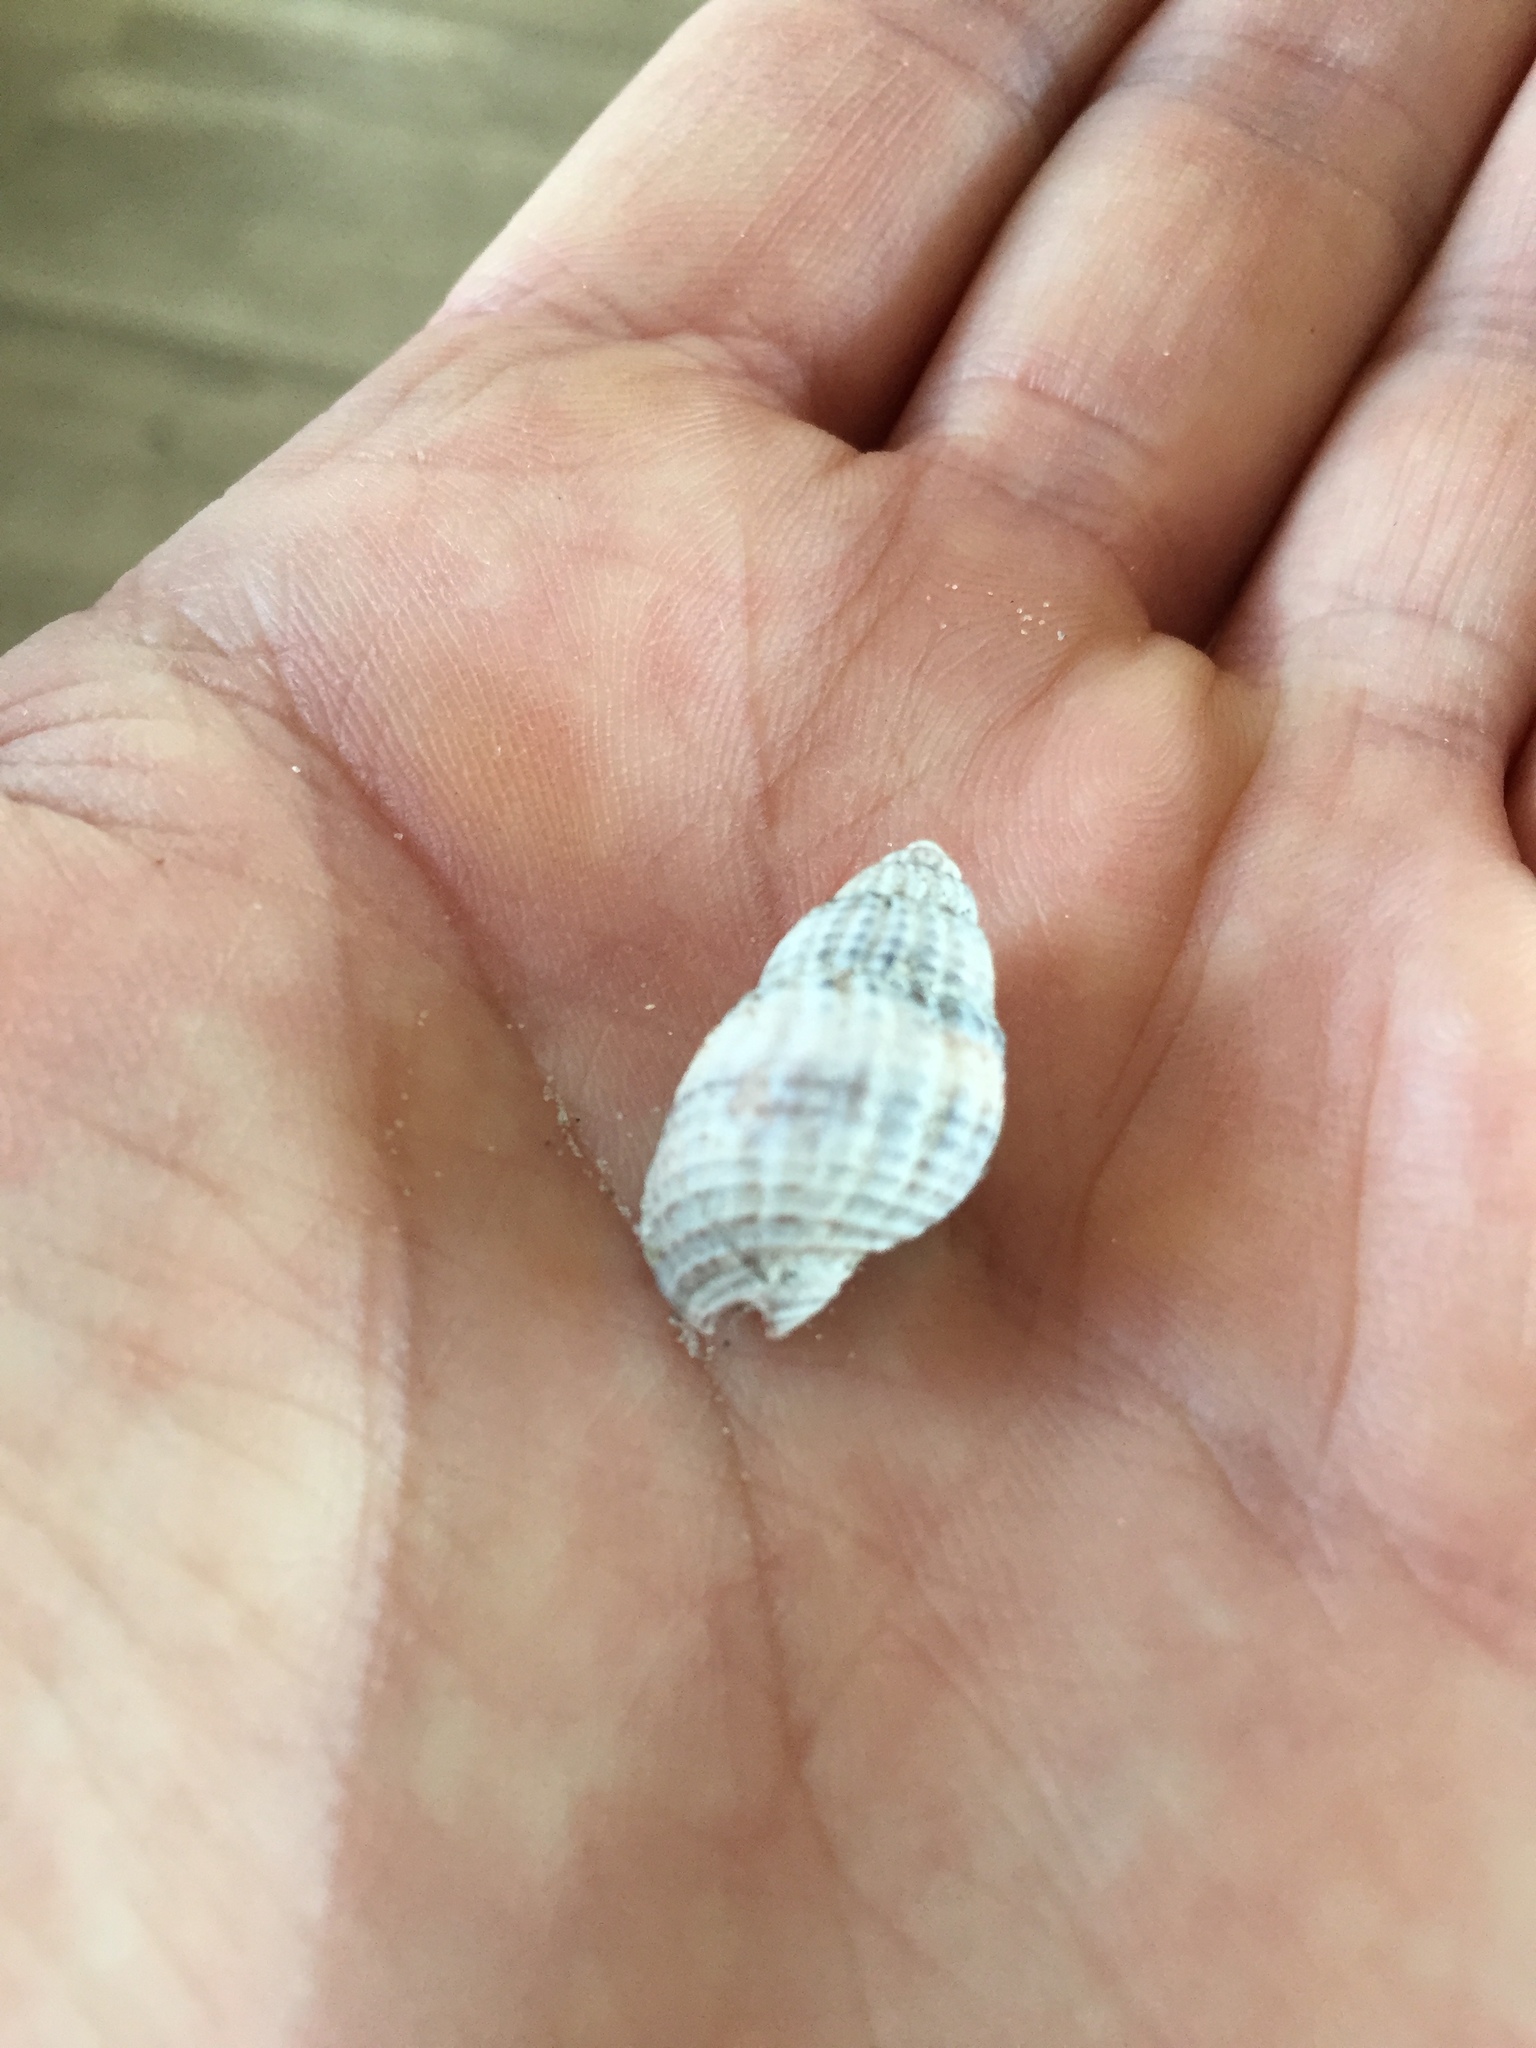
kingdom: Animalia
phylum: Mollusca
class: Gastropoda
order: Neogastropoda
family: Nassariidae
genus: Tritia
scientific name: Tritia nitida
